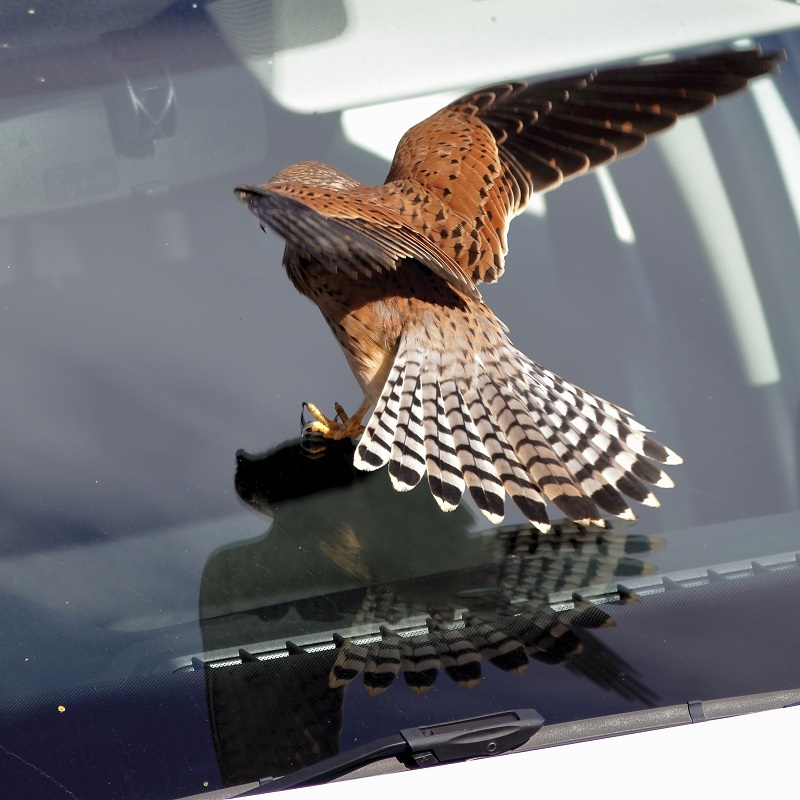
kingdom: Animalia
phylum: Chordata
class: Aves
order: Falconiformes
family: Falconidae
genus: Falco
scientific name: Falco rupicolus
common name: Rock kestrel
